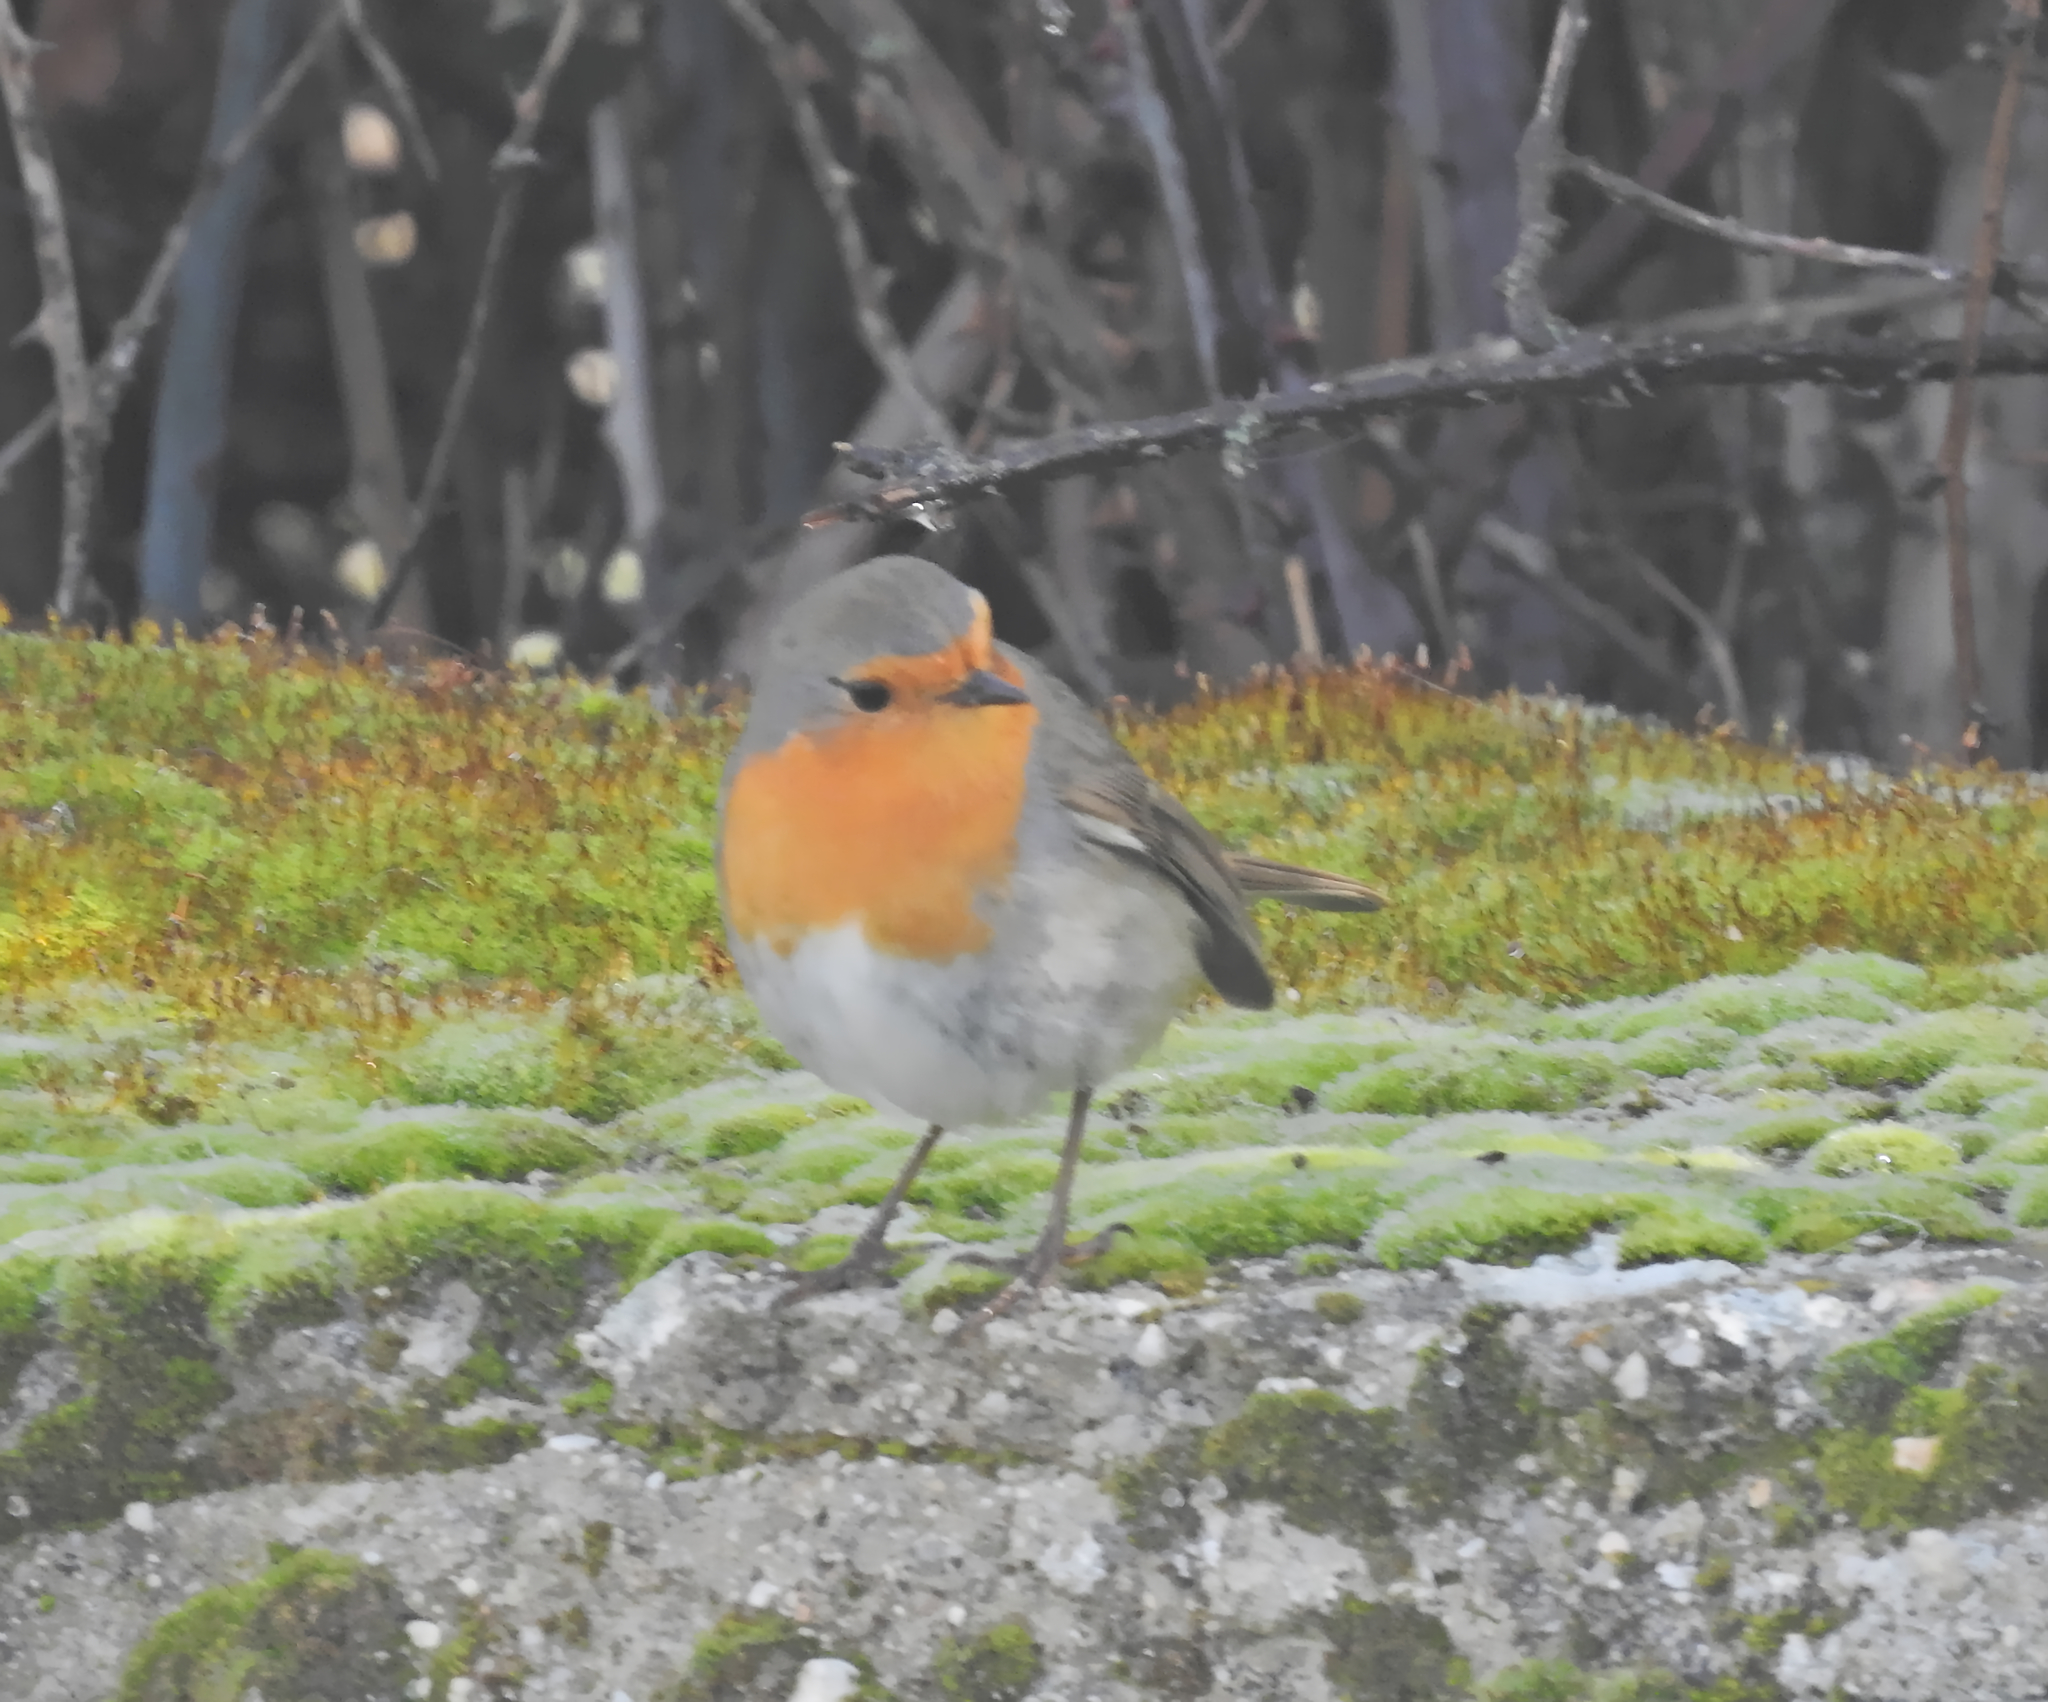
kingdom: Animalia
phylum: Chordata
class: Aves
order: Passeriformes
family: Muscicapidae
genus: Erithacus
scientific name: Erithacus rubecula
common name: European robin
